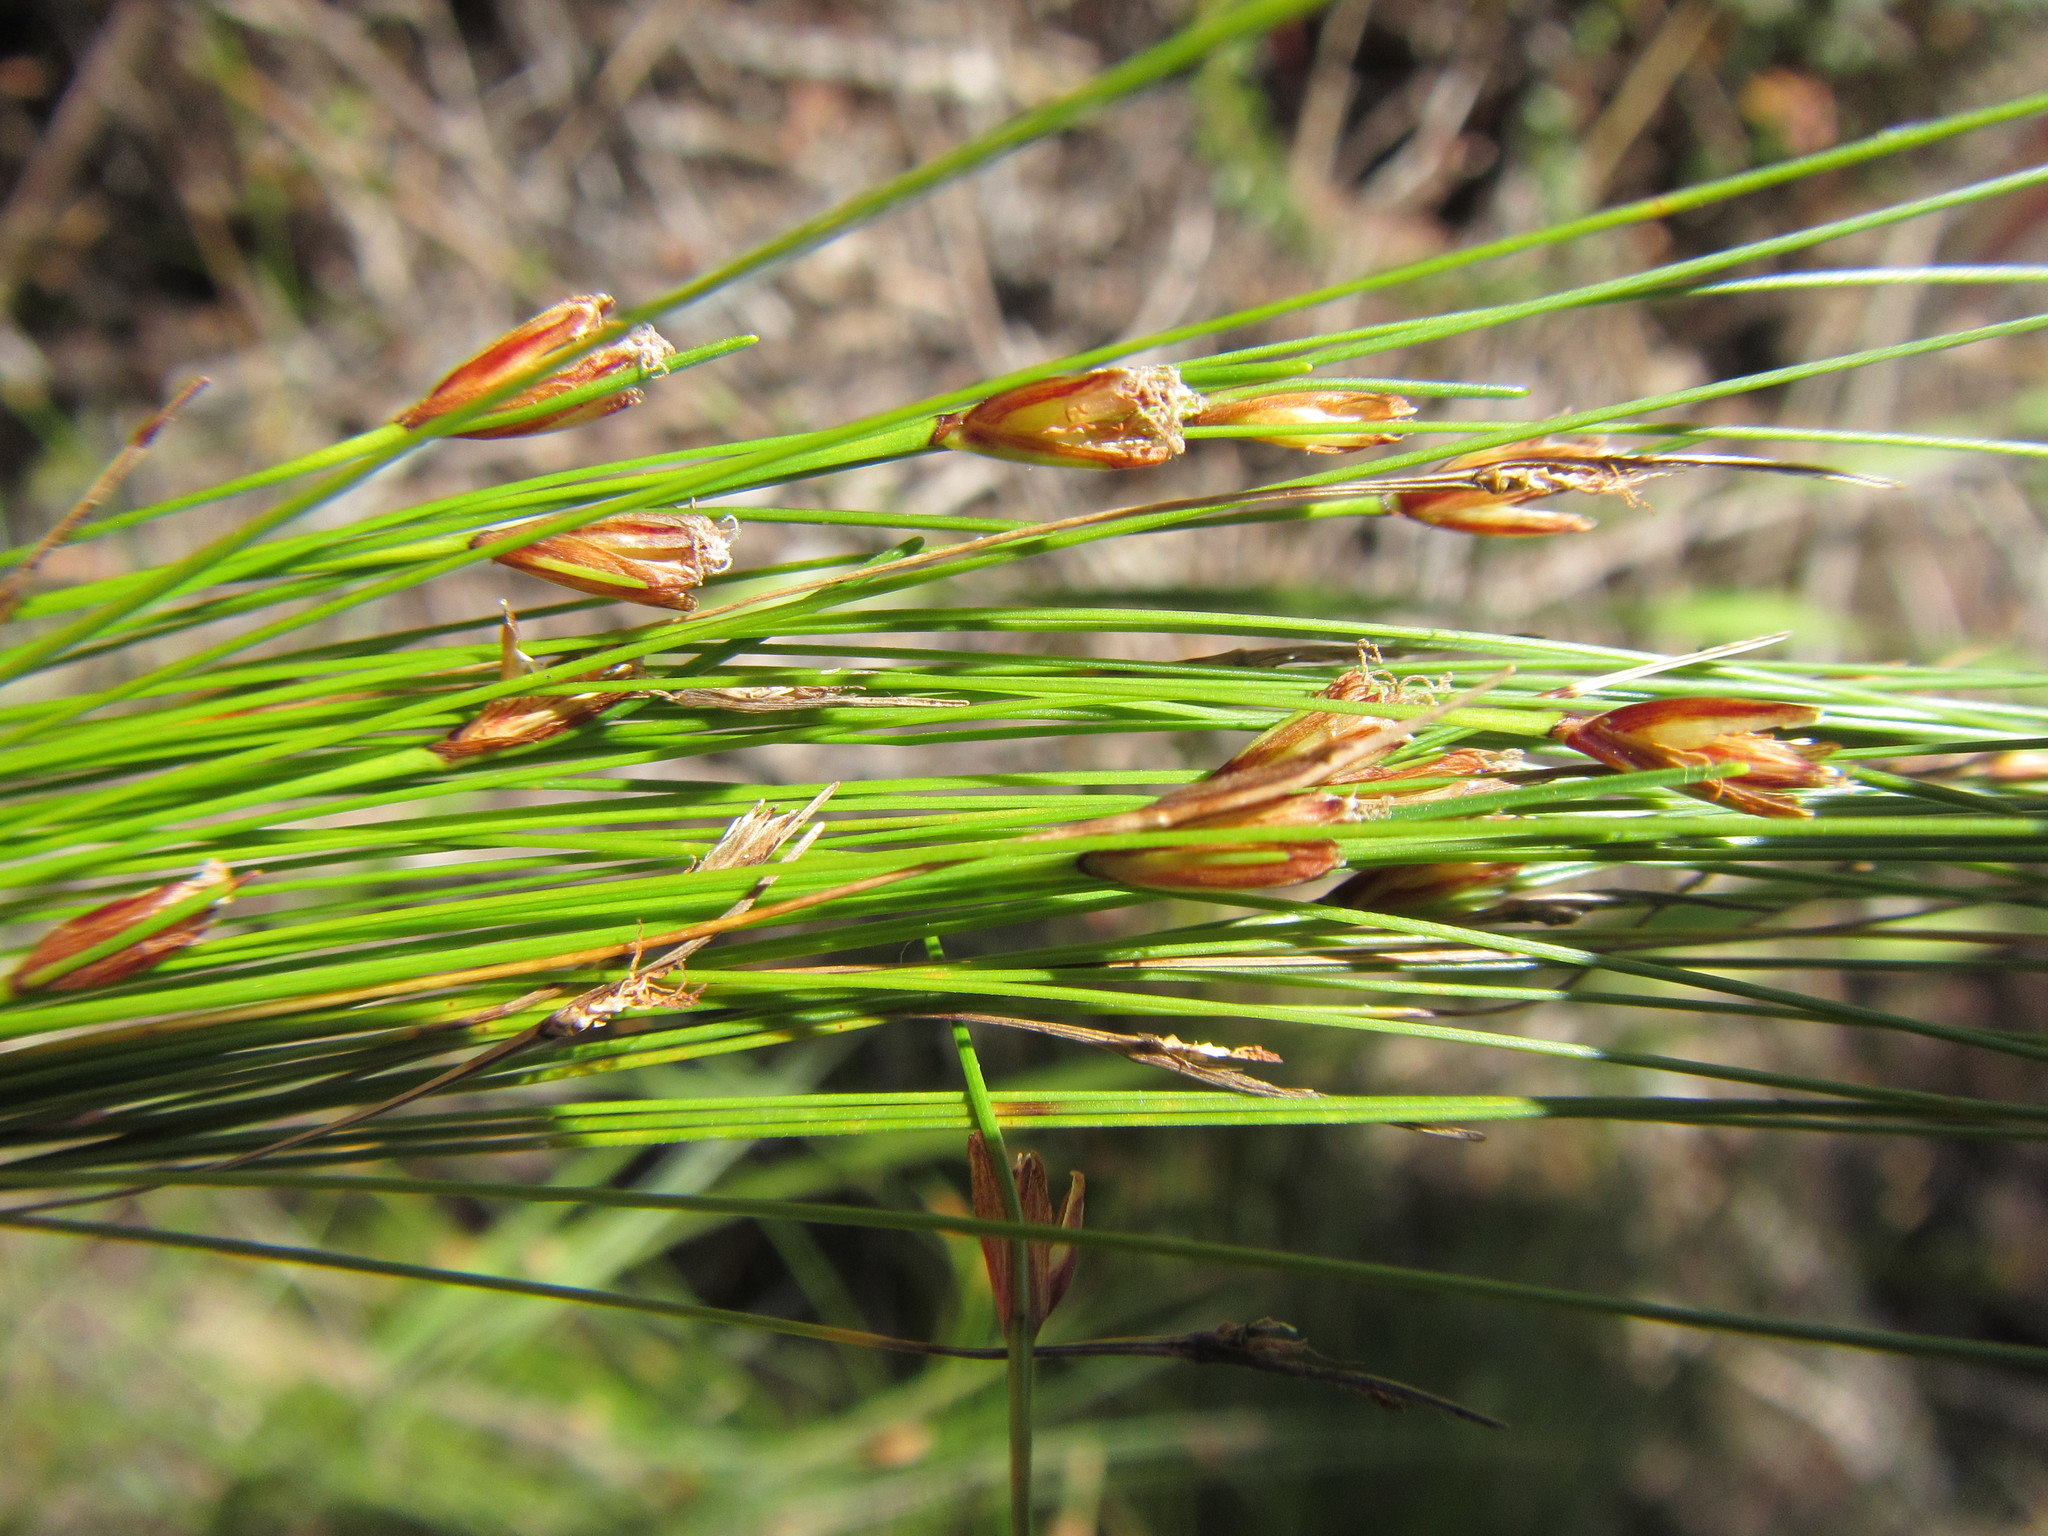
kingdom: Plantae
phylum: Tracheophyta
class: Liliopsida
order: Poales
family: Cyperaceae
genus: Ficinia
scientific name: Ficinia zeyheri
